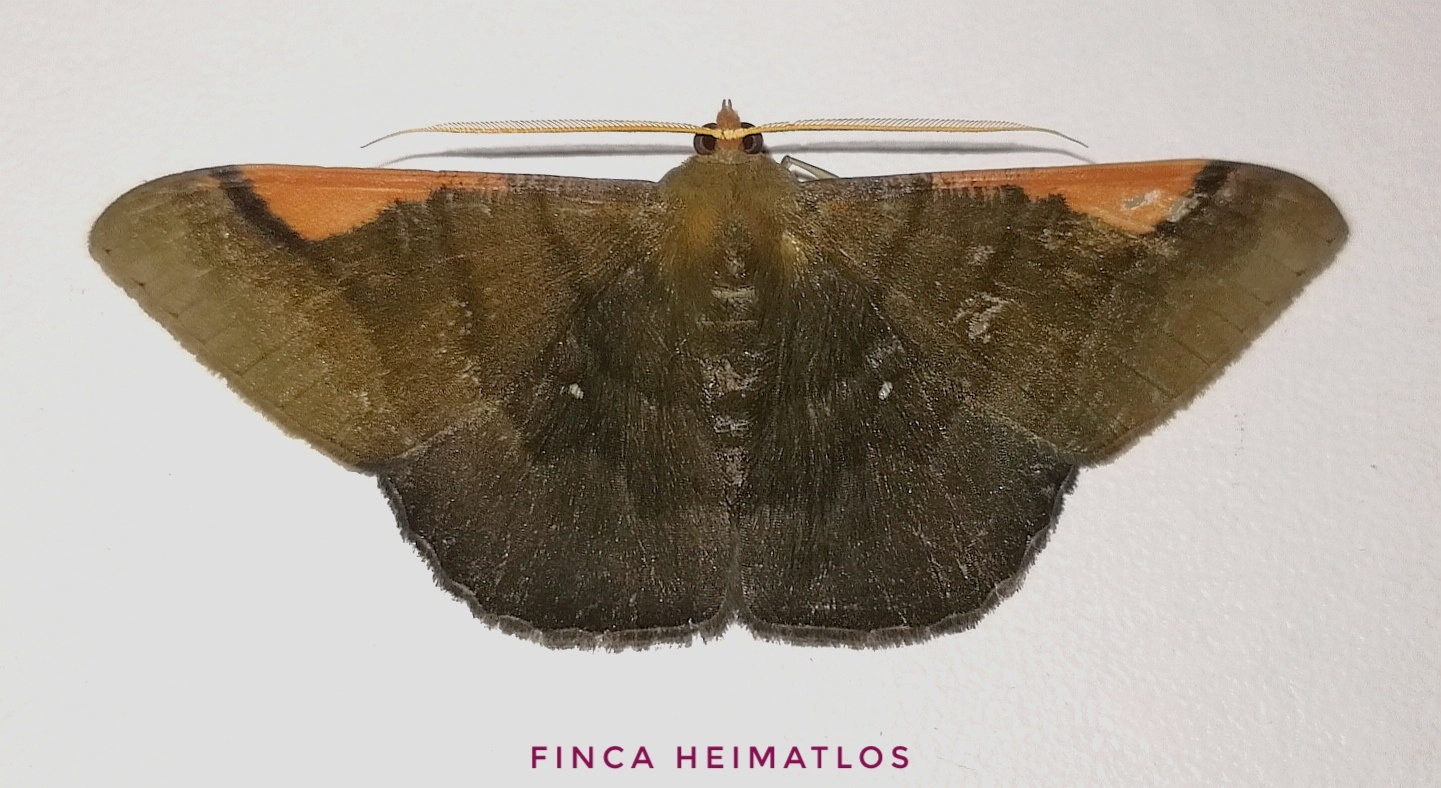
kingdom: Animalia
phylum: Arthropoda
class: Insecta
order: Lepidoptera
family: Geometridae
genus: Sphacelodes
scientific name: Sphacelodes vulneraria
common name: Looper moth
